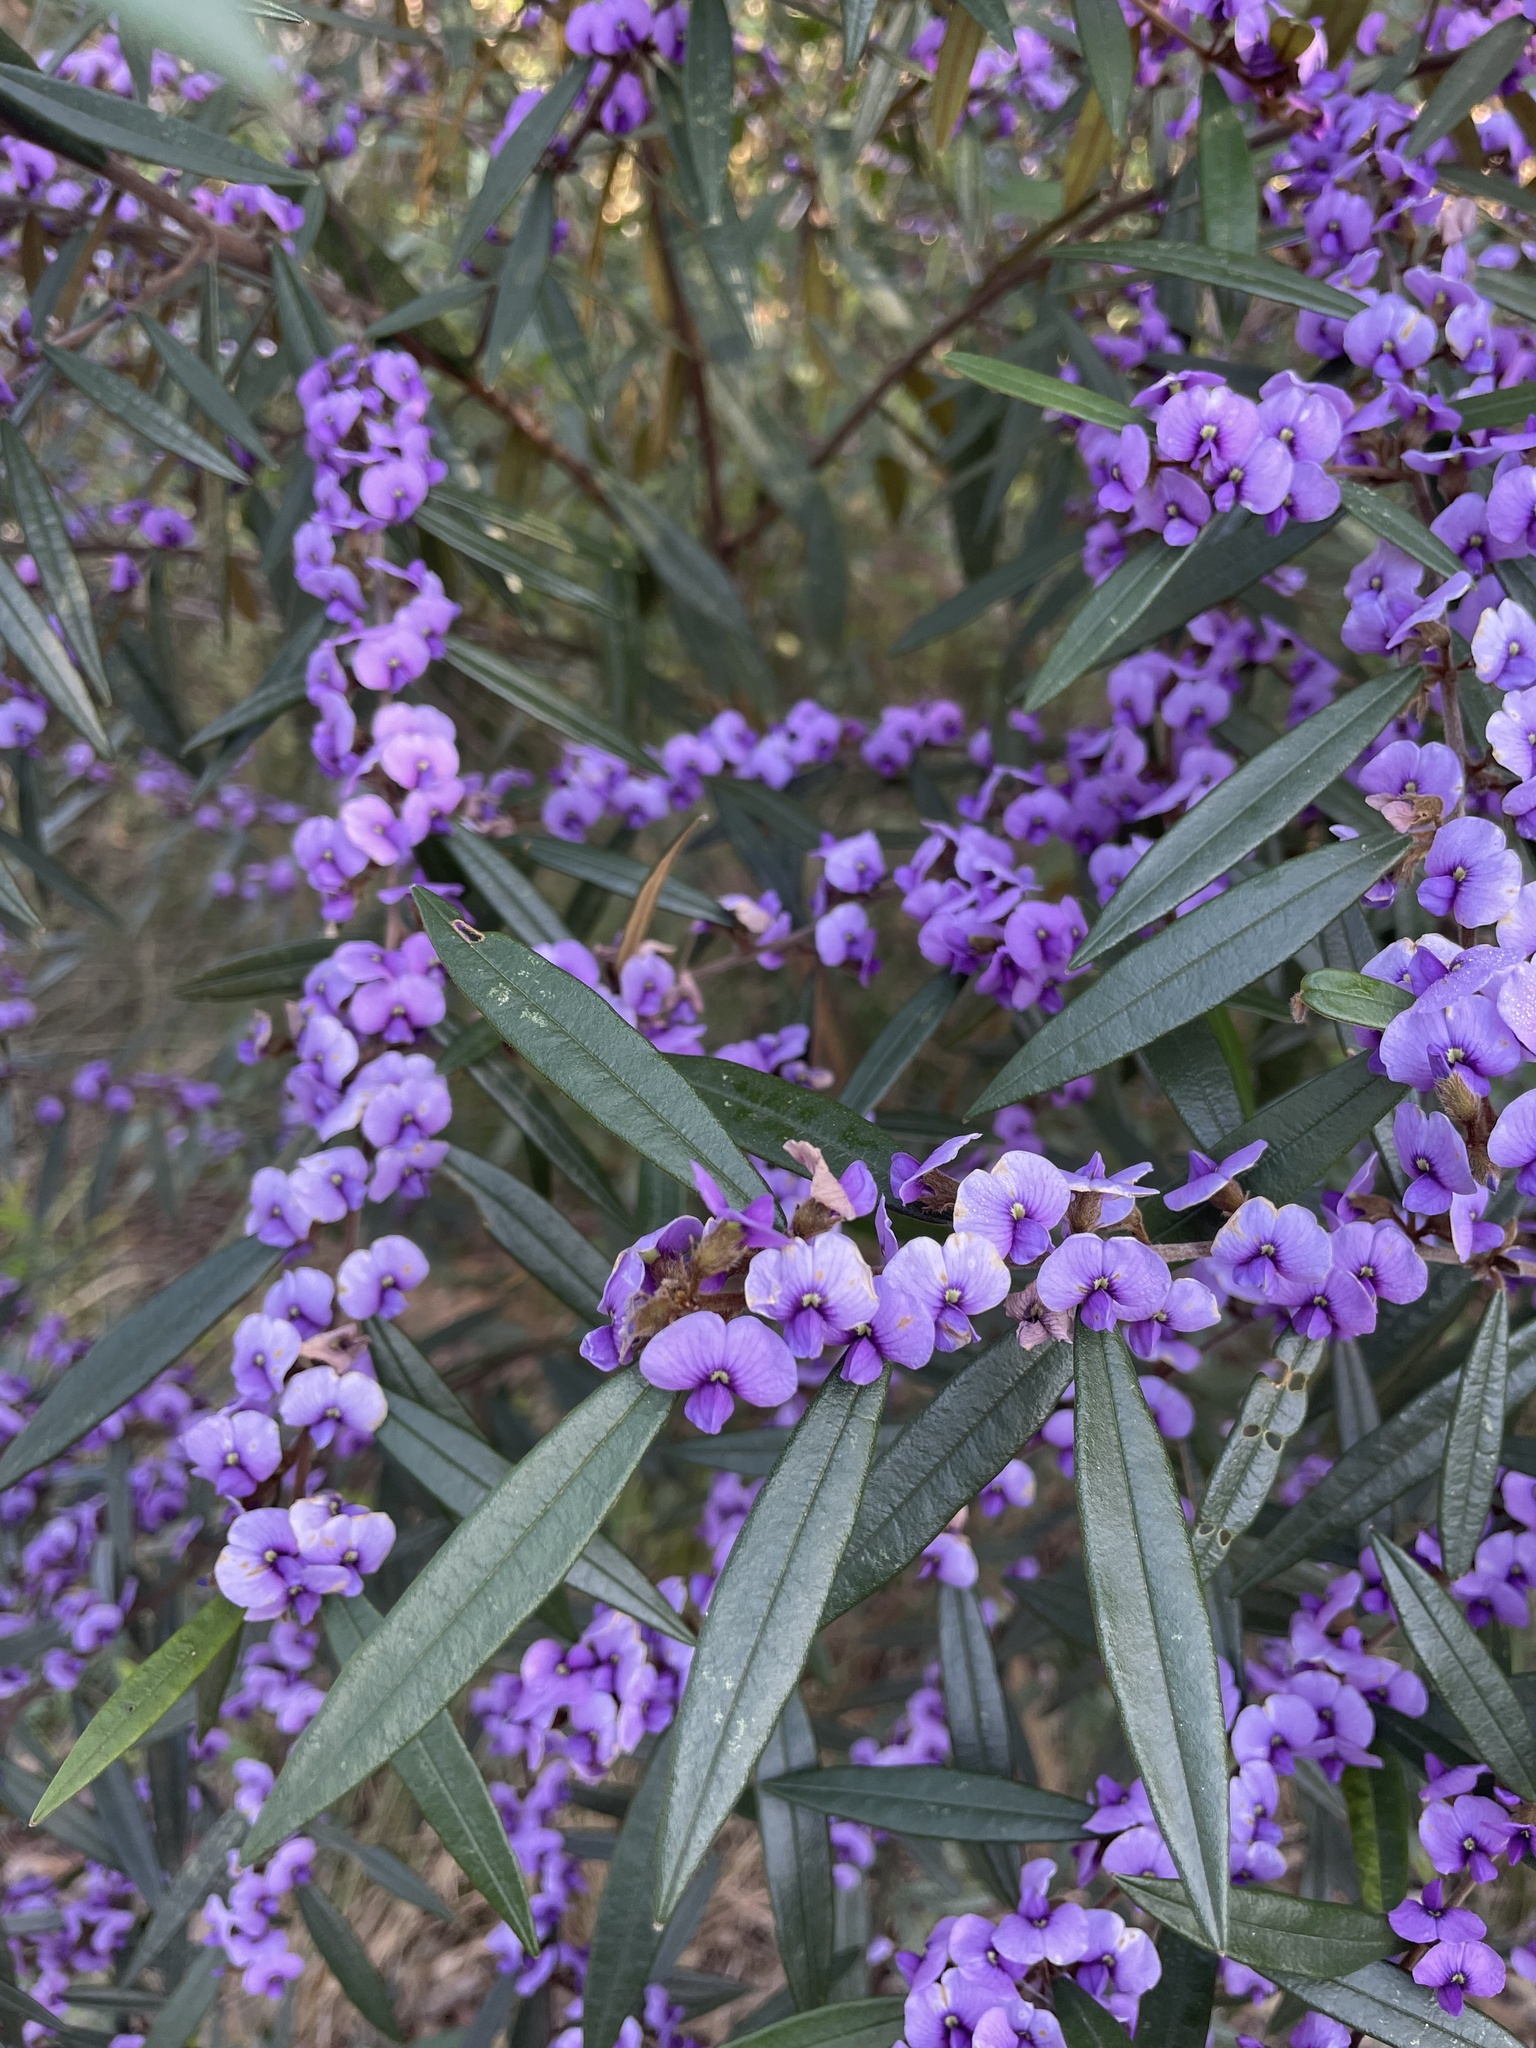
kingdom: Plantae
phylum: Tracheophyta
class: Magnoliopsida
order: Fabales
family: Fabaceae
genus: Hovea
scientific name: Hovea heterophylla
